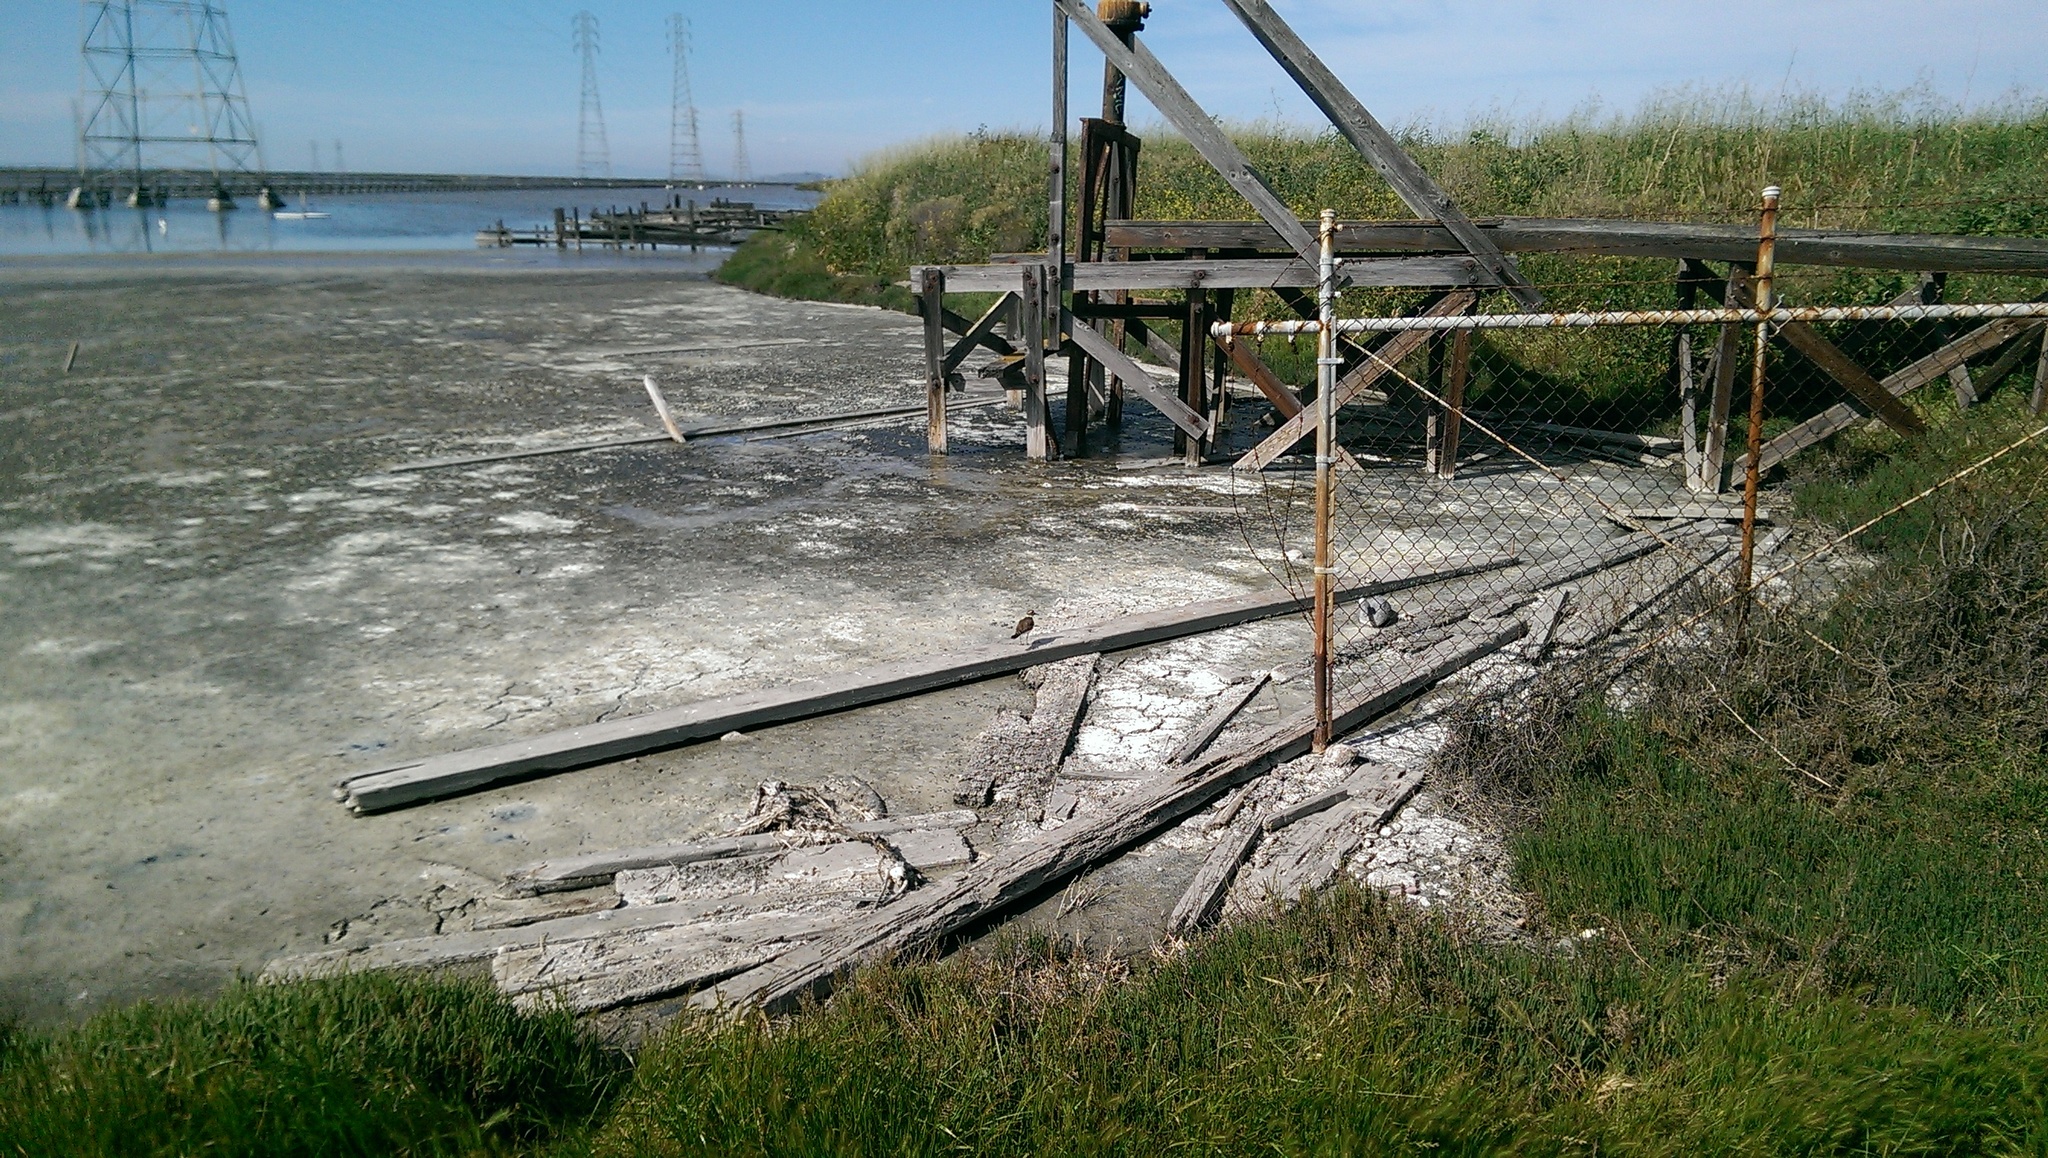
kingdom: Animalia
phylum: Chordata
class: Aves
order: Charadriiformes
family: Charadriidae
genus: Charadrius
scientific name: Charadrius vociferus
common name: Killdeer
